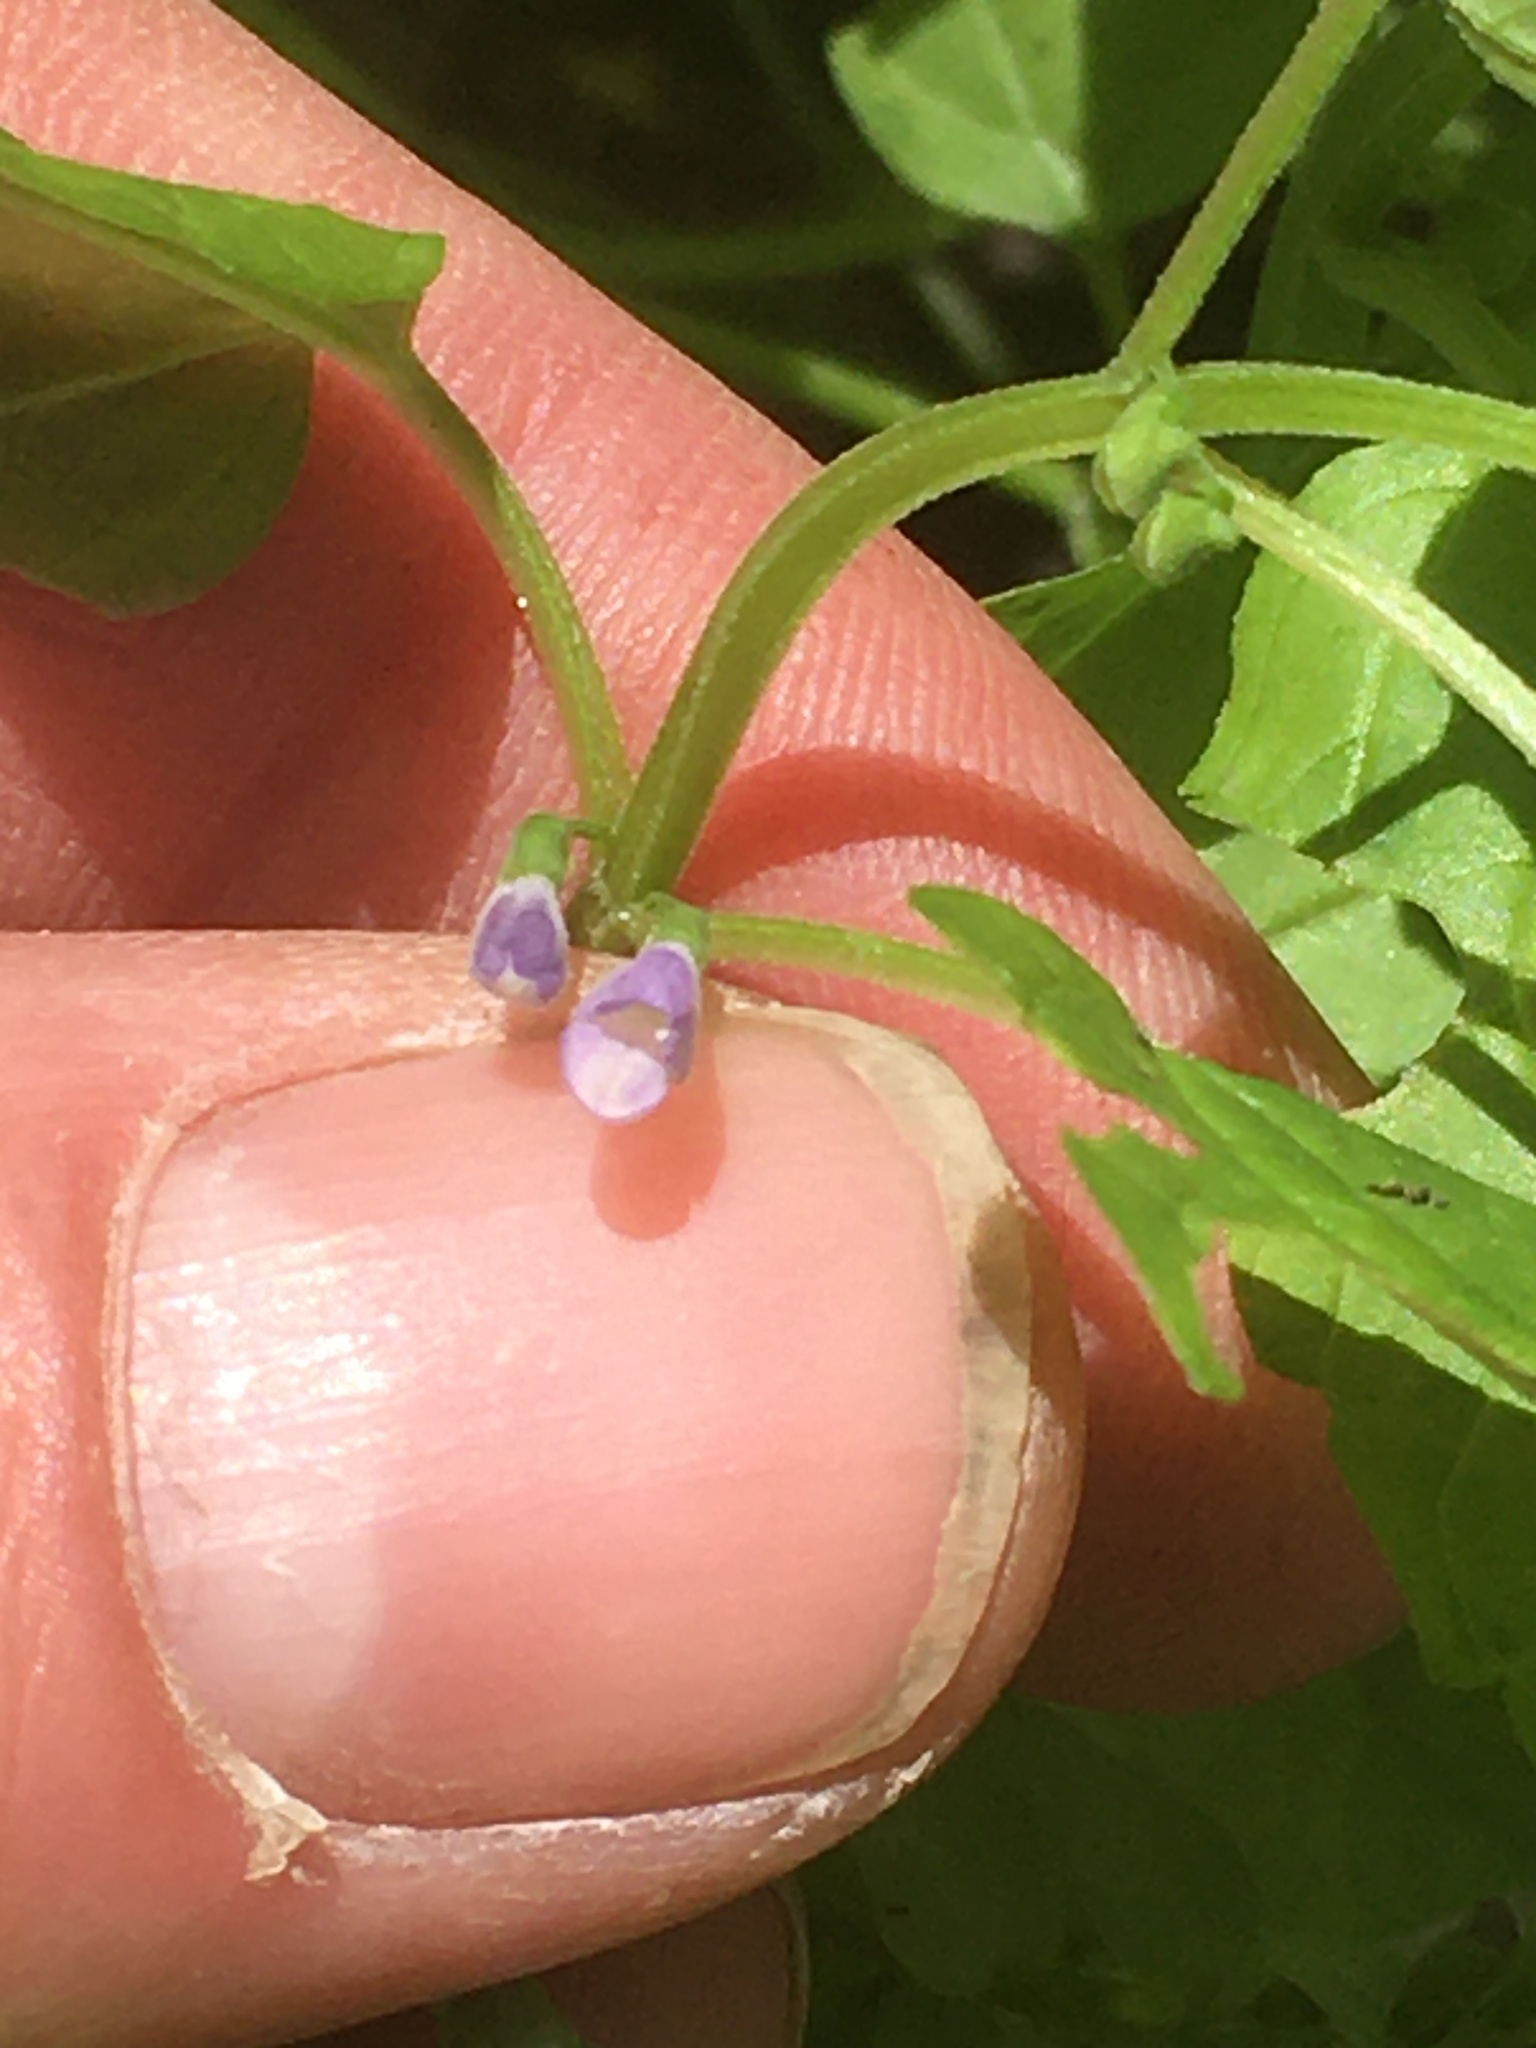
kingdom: Plantae
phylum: Tracheophyta
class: Magnoliopsida
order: Lamiales
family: Lamiaceae
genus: Scutellaria
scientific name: Scutellaria lateriflora
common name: Blue skullcap
